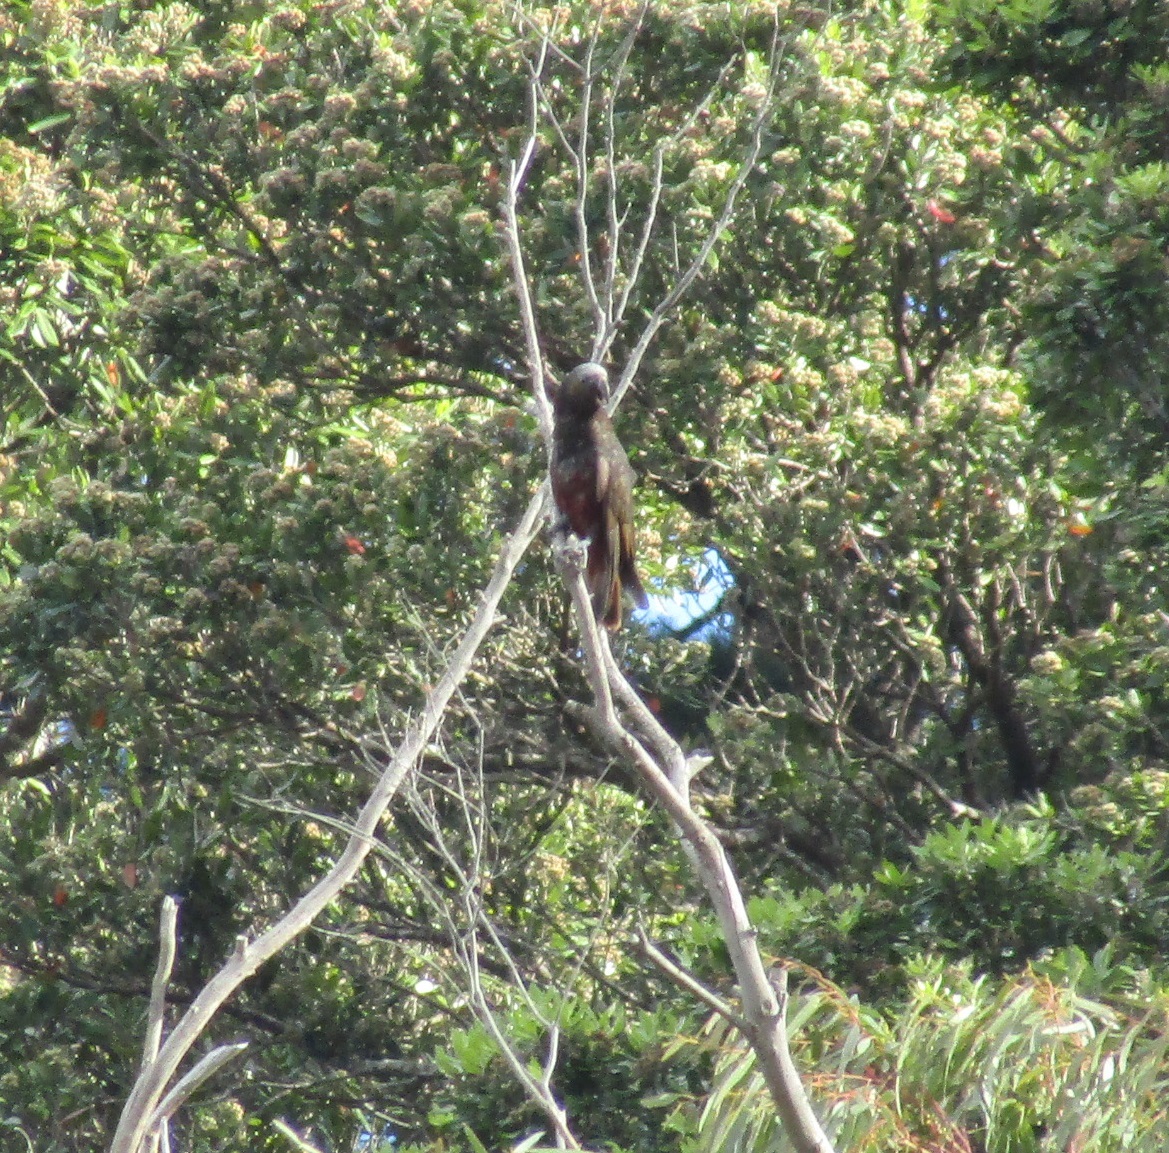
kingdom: Animalia
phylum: Chordata
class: Aves
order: Psittaciformes
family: Psittacidae
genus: Nestor
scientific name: Nestor meridionalis
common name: New zealand kaka
